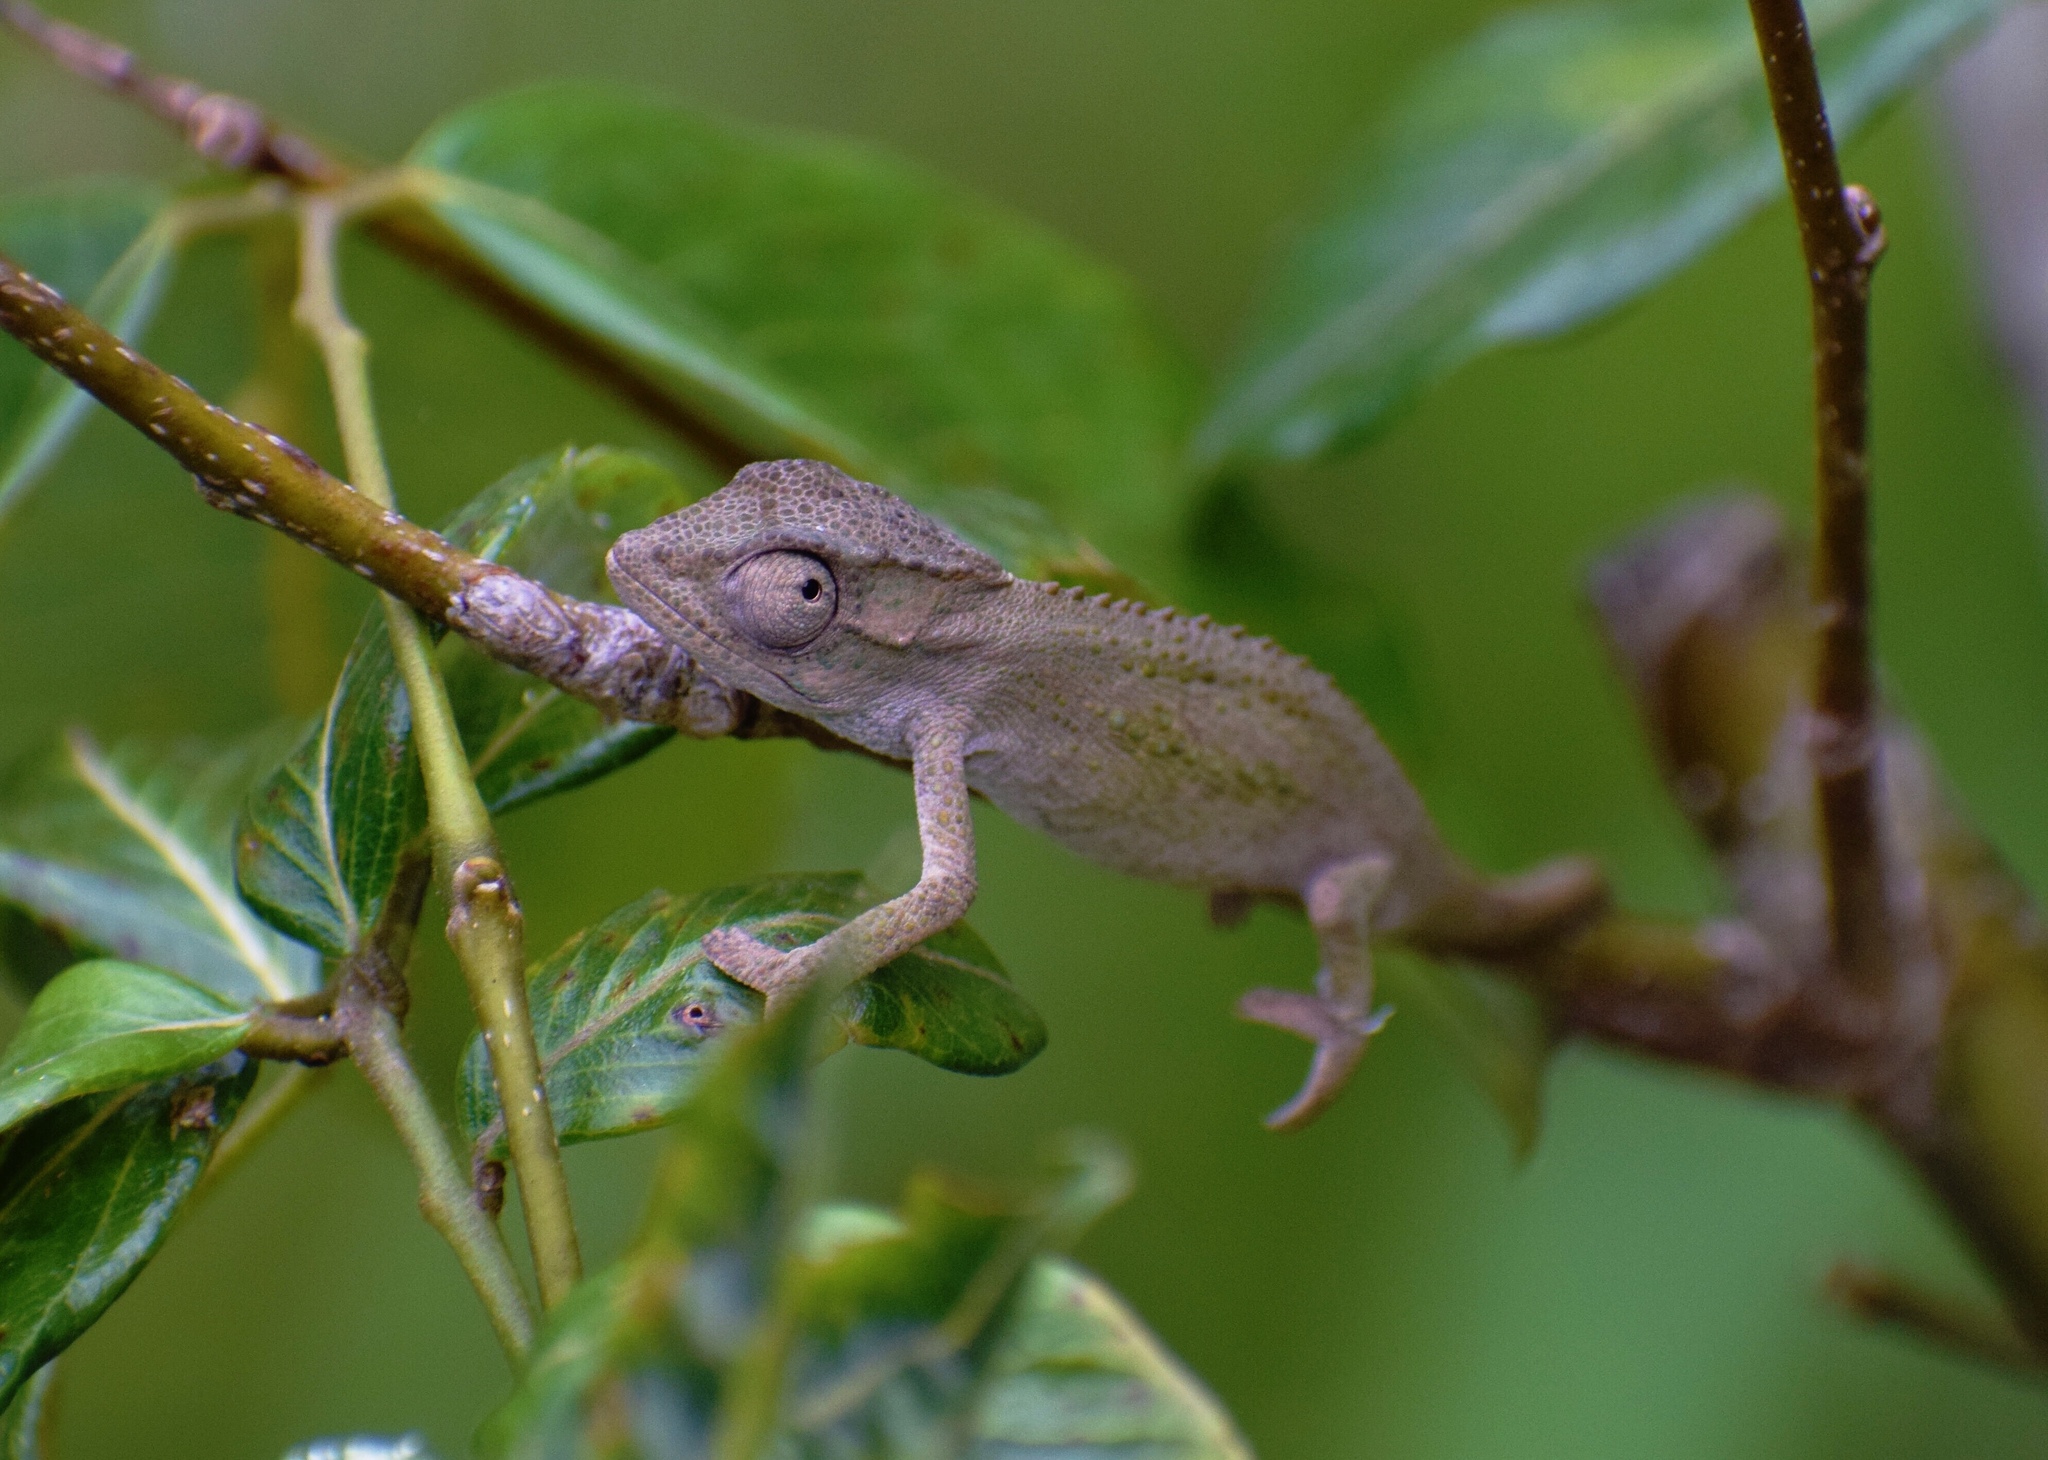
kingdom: Animalia
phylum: Chordata
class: Squamata
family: Chamaeleonidae
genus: Bradypodion
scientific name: Bradypodion melanocephalum
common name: Black-headed dwarf chameleon
